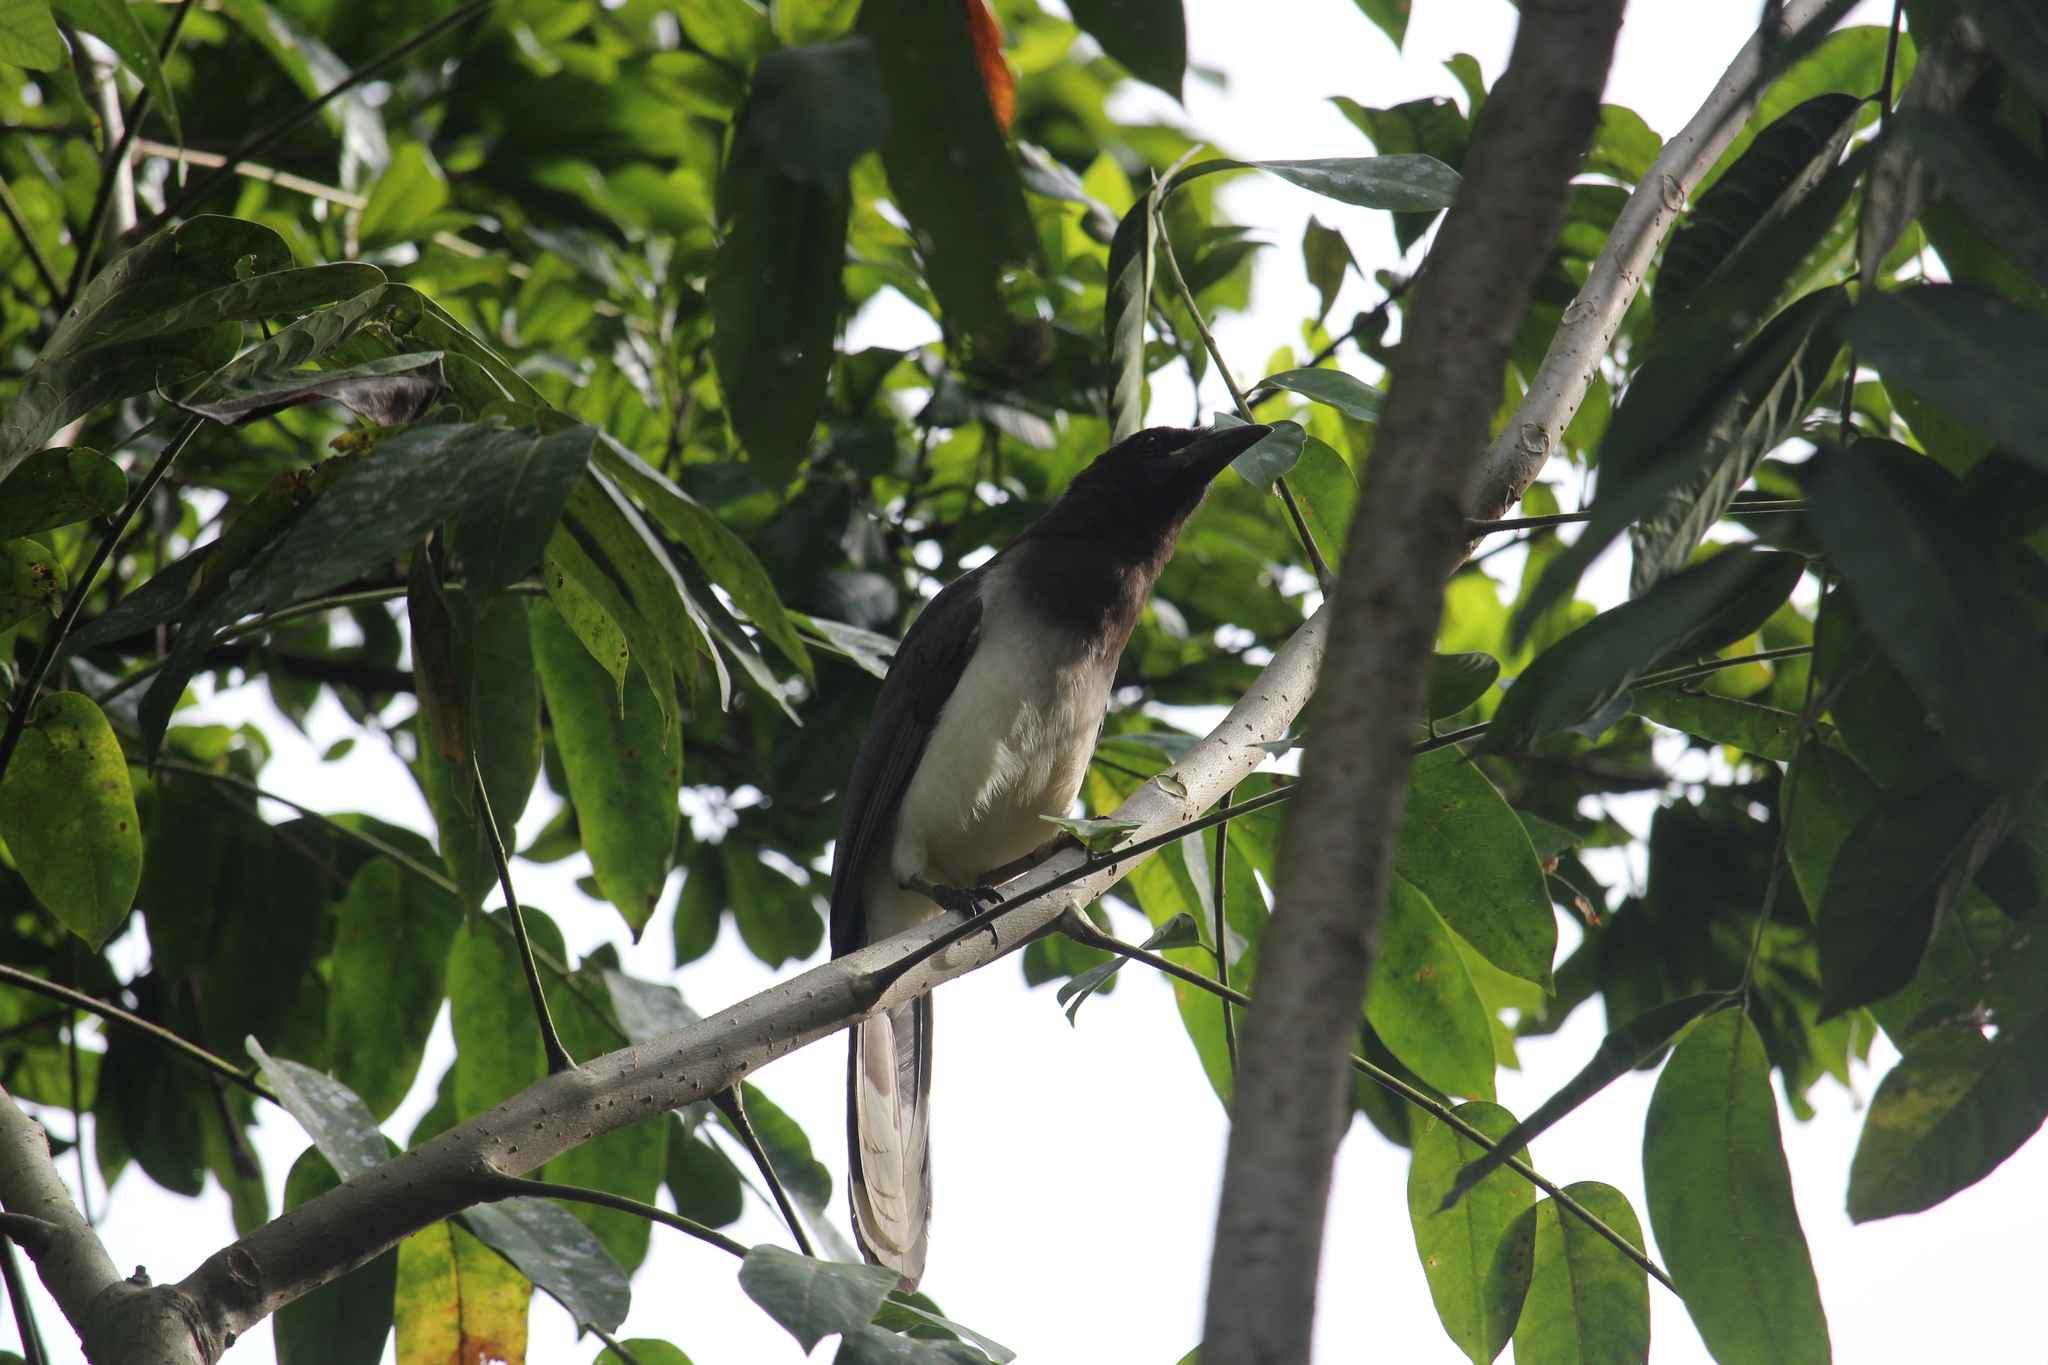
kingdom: Animalia
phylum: Chordata
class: Aves
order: Passeriformes
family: Corvidae
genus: Psilorhinus
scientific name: Psilorhinus morio
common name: Brown jay
